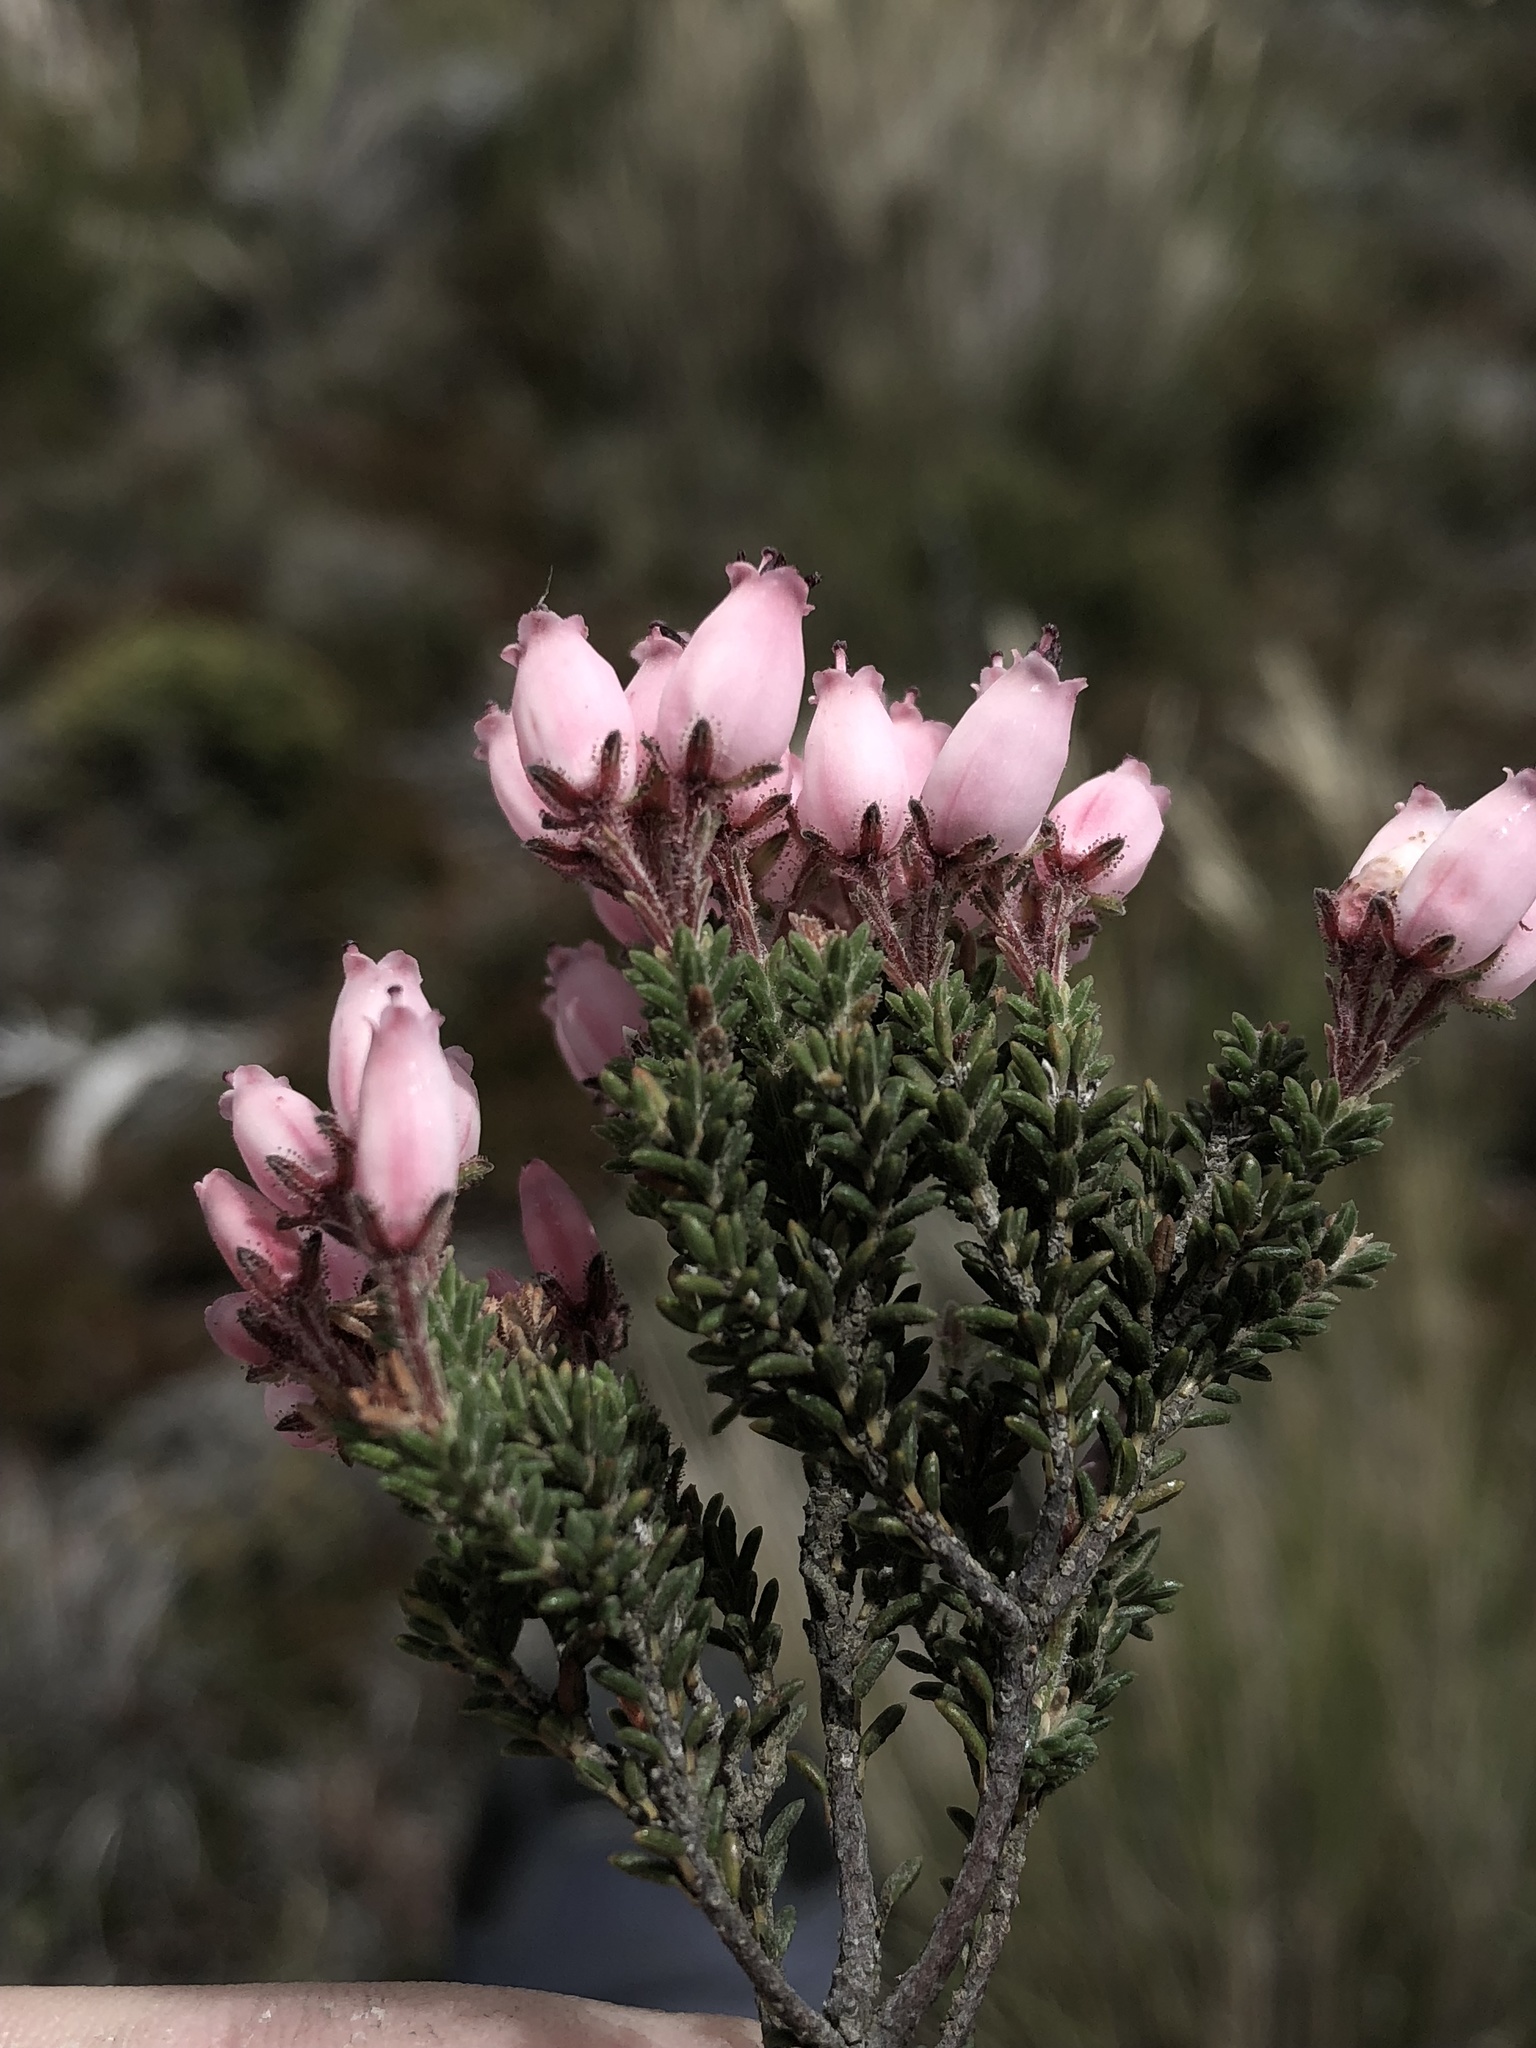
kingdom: Plantae
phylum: Tracheophyta
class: Magnoliopsida
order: Ericales
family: Ericaceae
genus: Erica
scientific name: Erica lignosa
